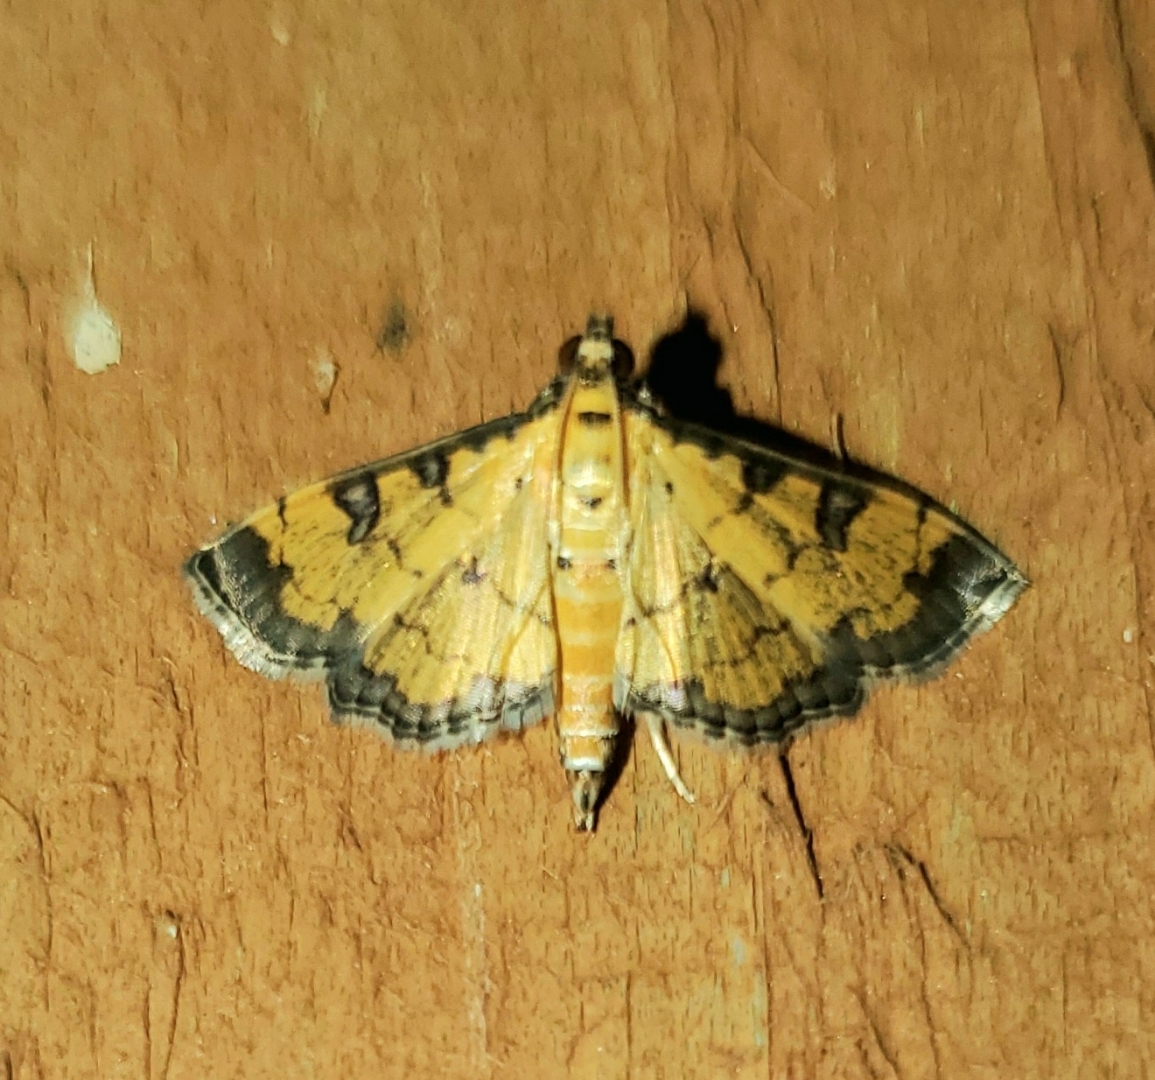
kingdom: Animalia
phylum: Arthropoda
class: Insecta
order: Lepidoptera
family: Crambidae
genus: Ategumia
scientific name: Ategumia ebulealis
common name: Moth
